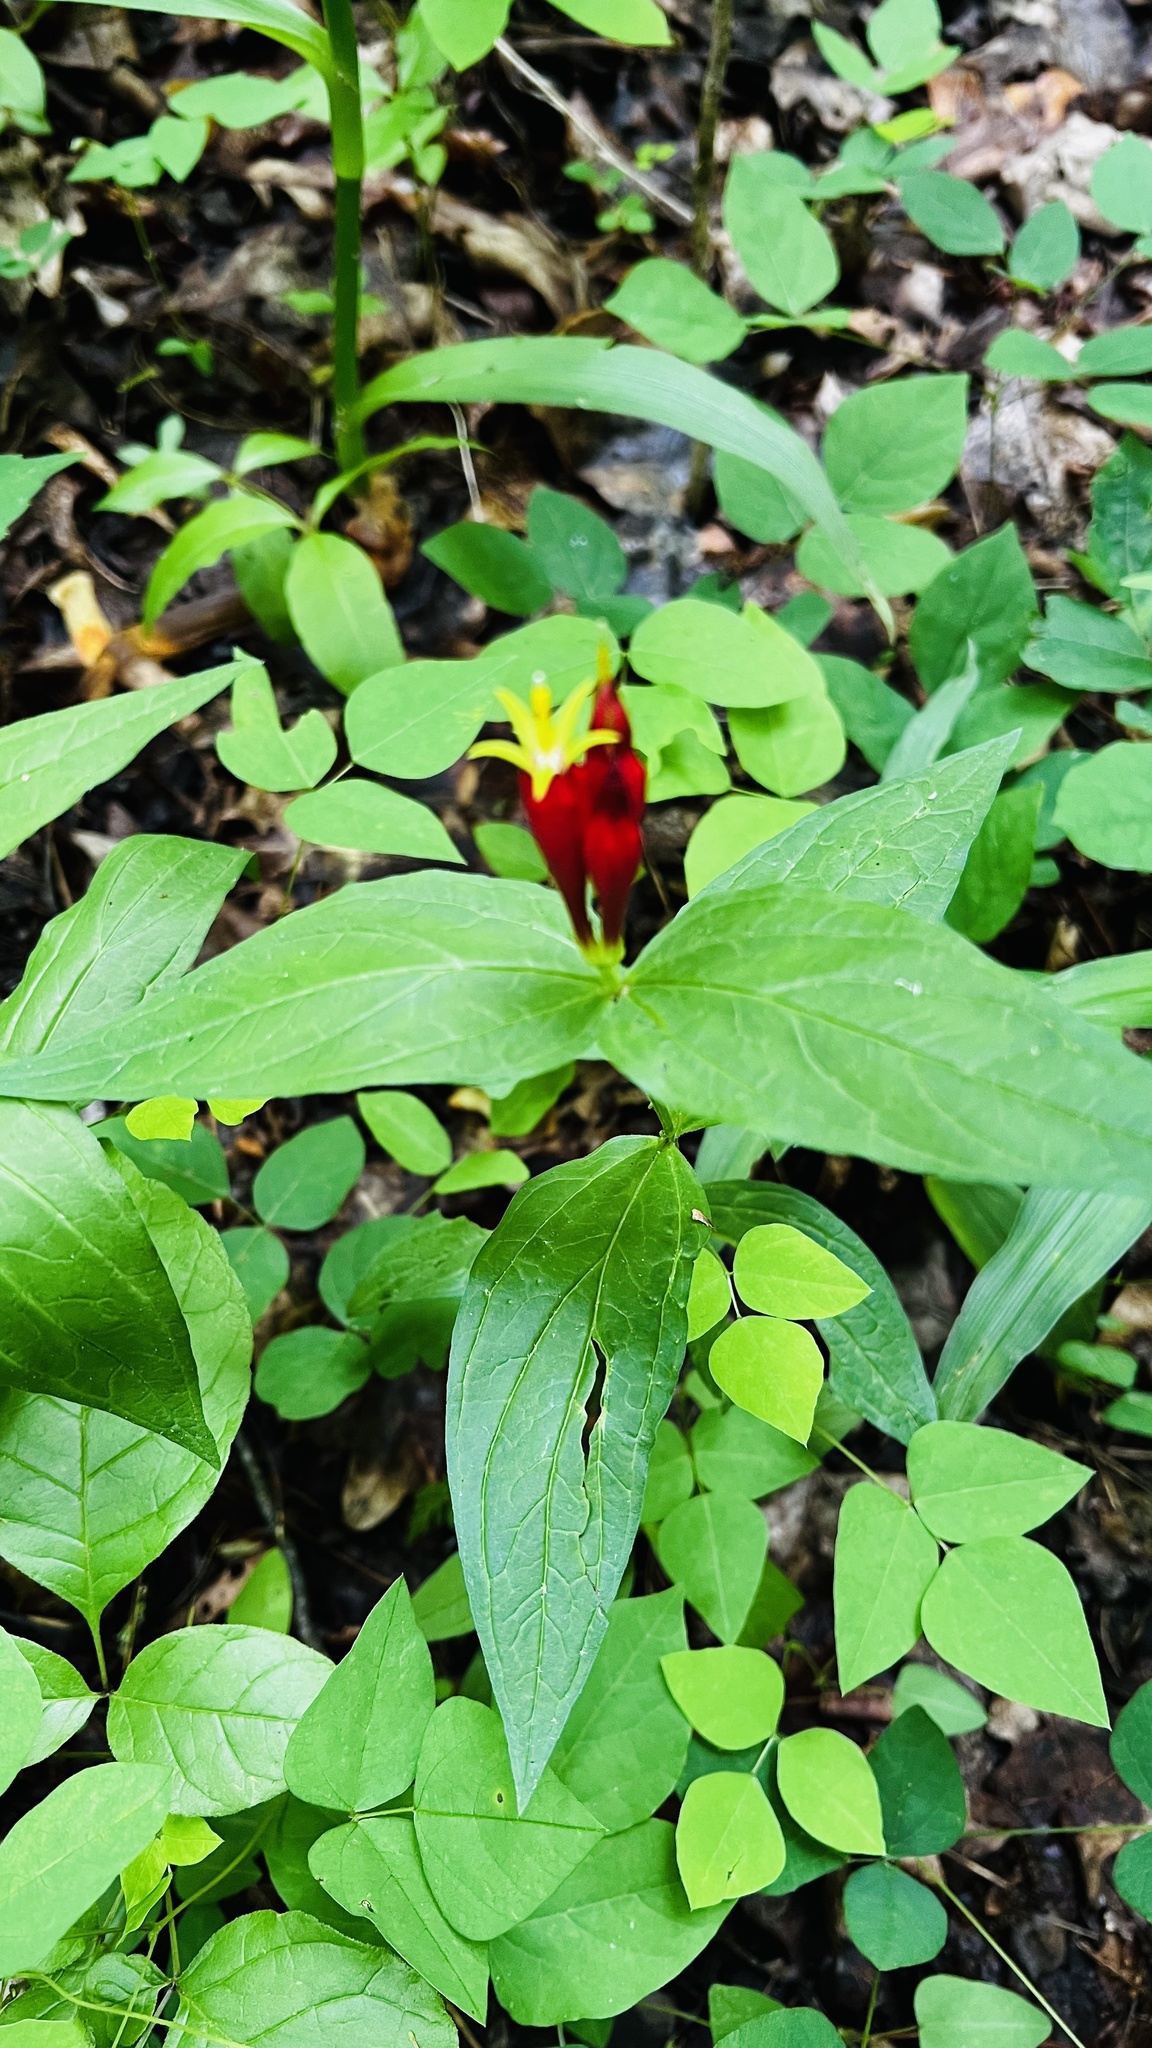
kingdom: Plantae
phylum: Tracheophyta
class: Magnoliopsida
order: Gentianales
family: Loganiaceae
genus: Spigelia
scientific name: Spigelia marilandica
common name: Indian-pink
